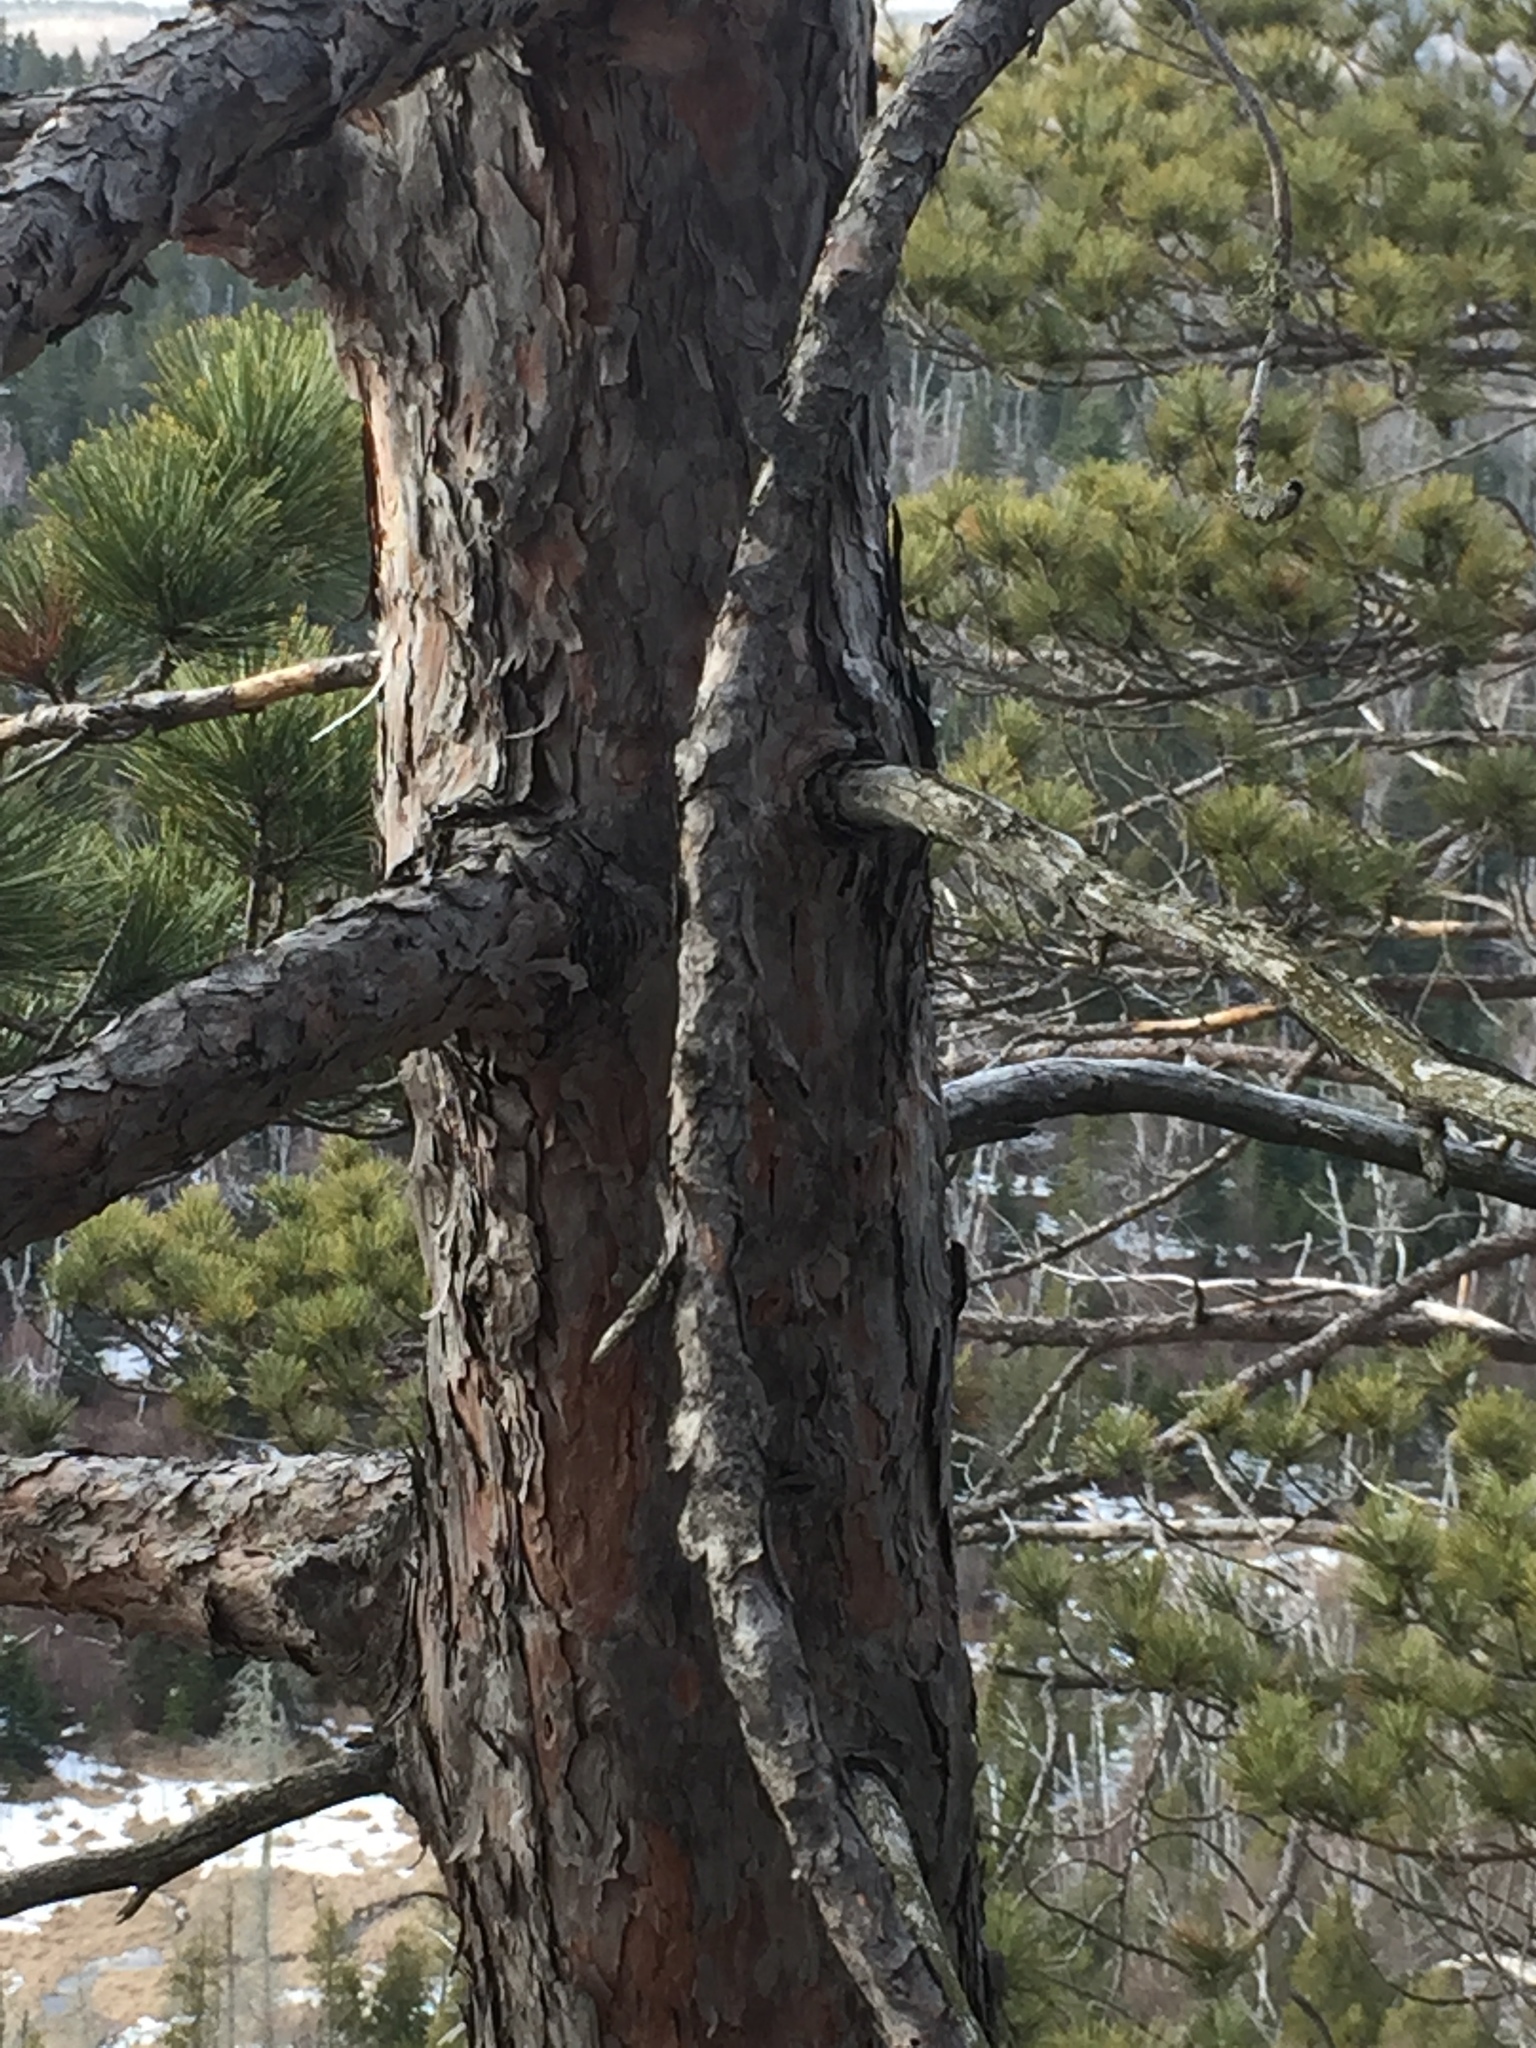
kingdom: Plantae
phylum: Tracheophyta
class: Pinopsida
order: Pinales
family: Pinaceae
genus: Pinus
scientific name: Pinus resinosa
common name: Norway pine
